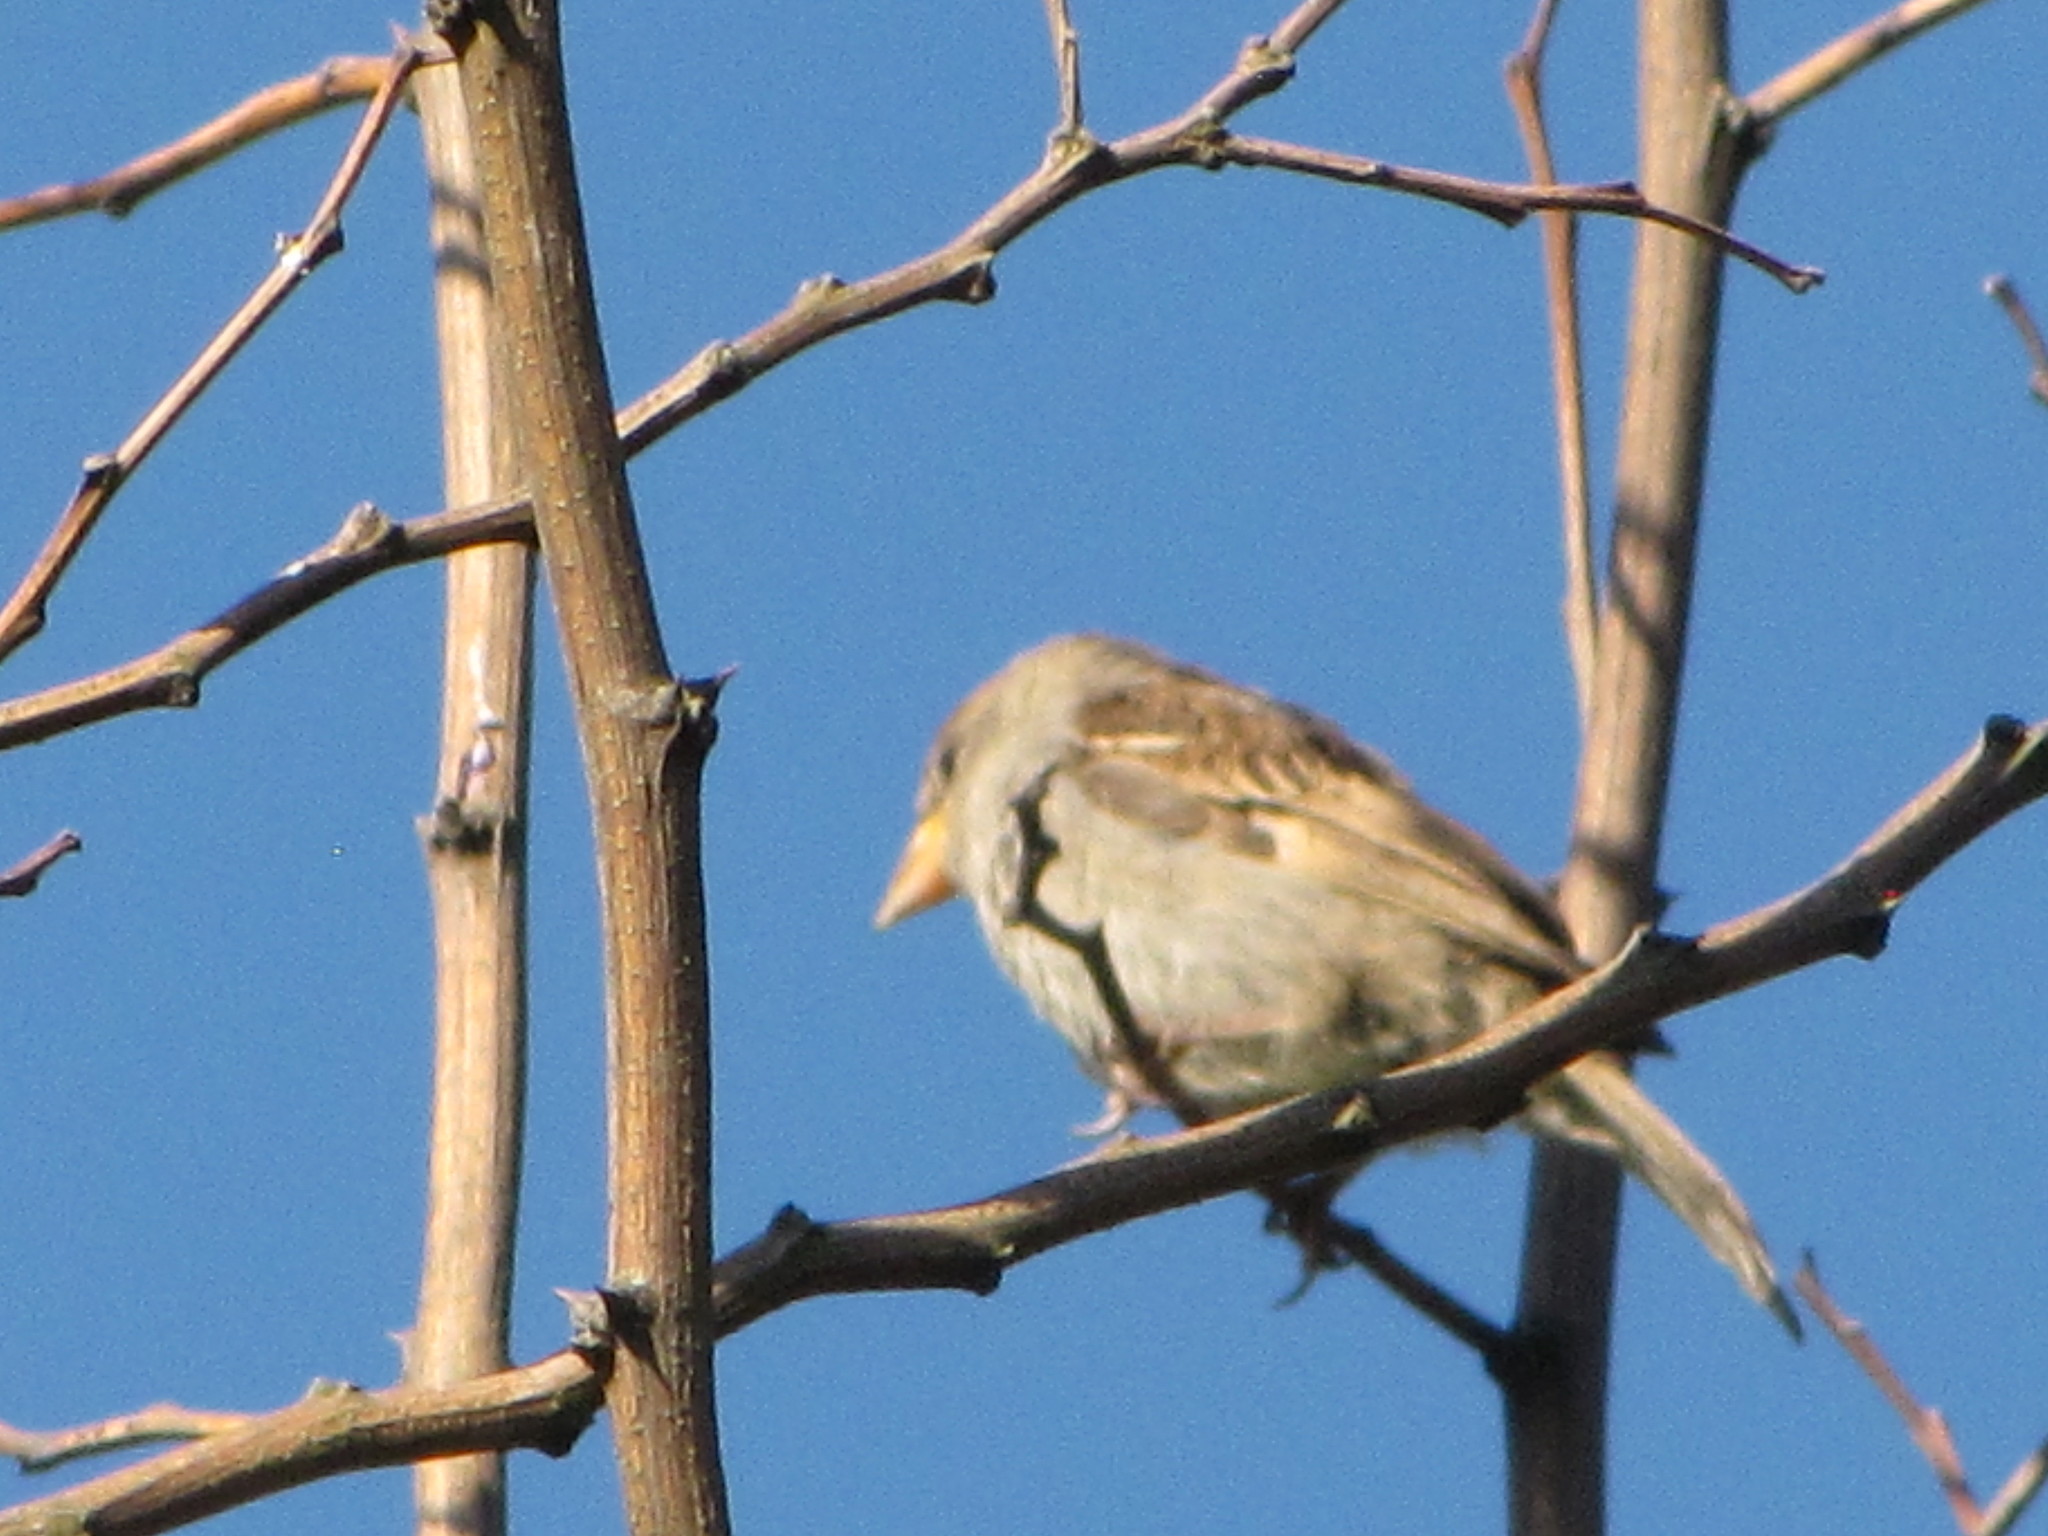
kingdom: Animalia
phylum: Chordata
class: Aves
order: Passeriformes
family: Passeridae
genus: Passer
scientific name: Passer domesticus
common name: House sparrow
